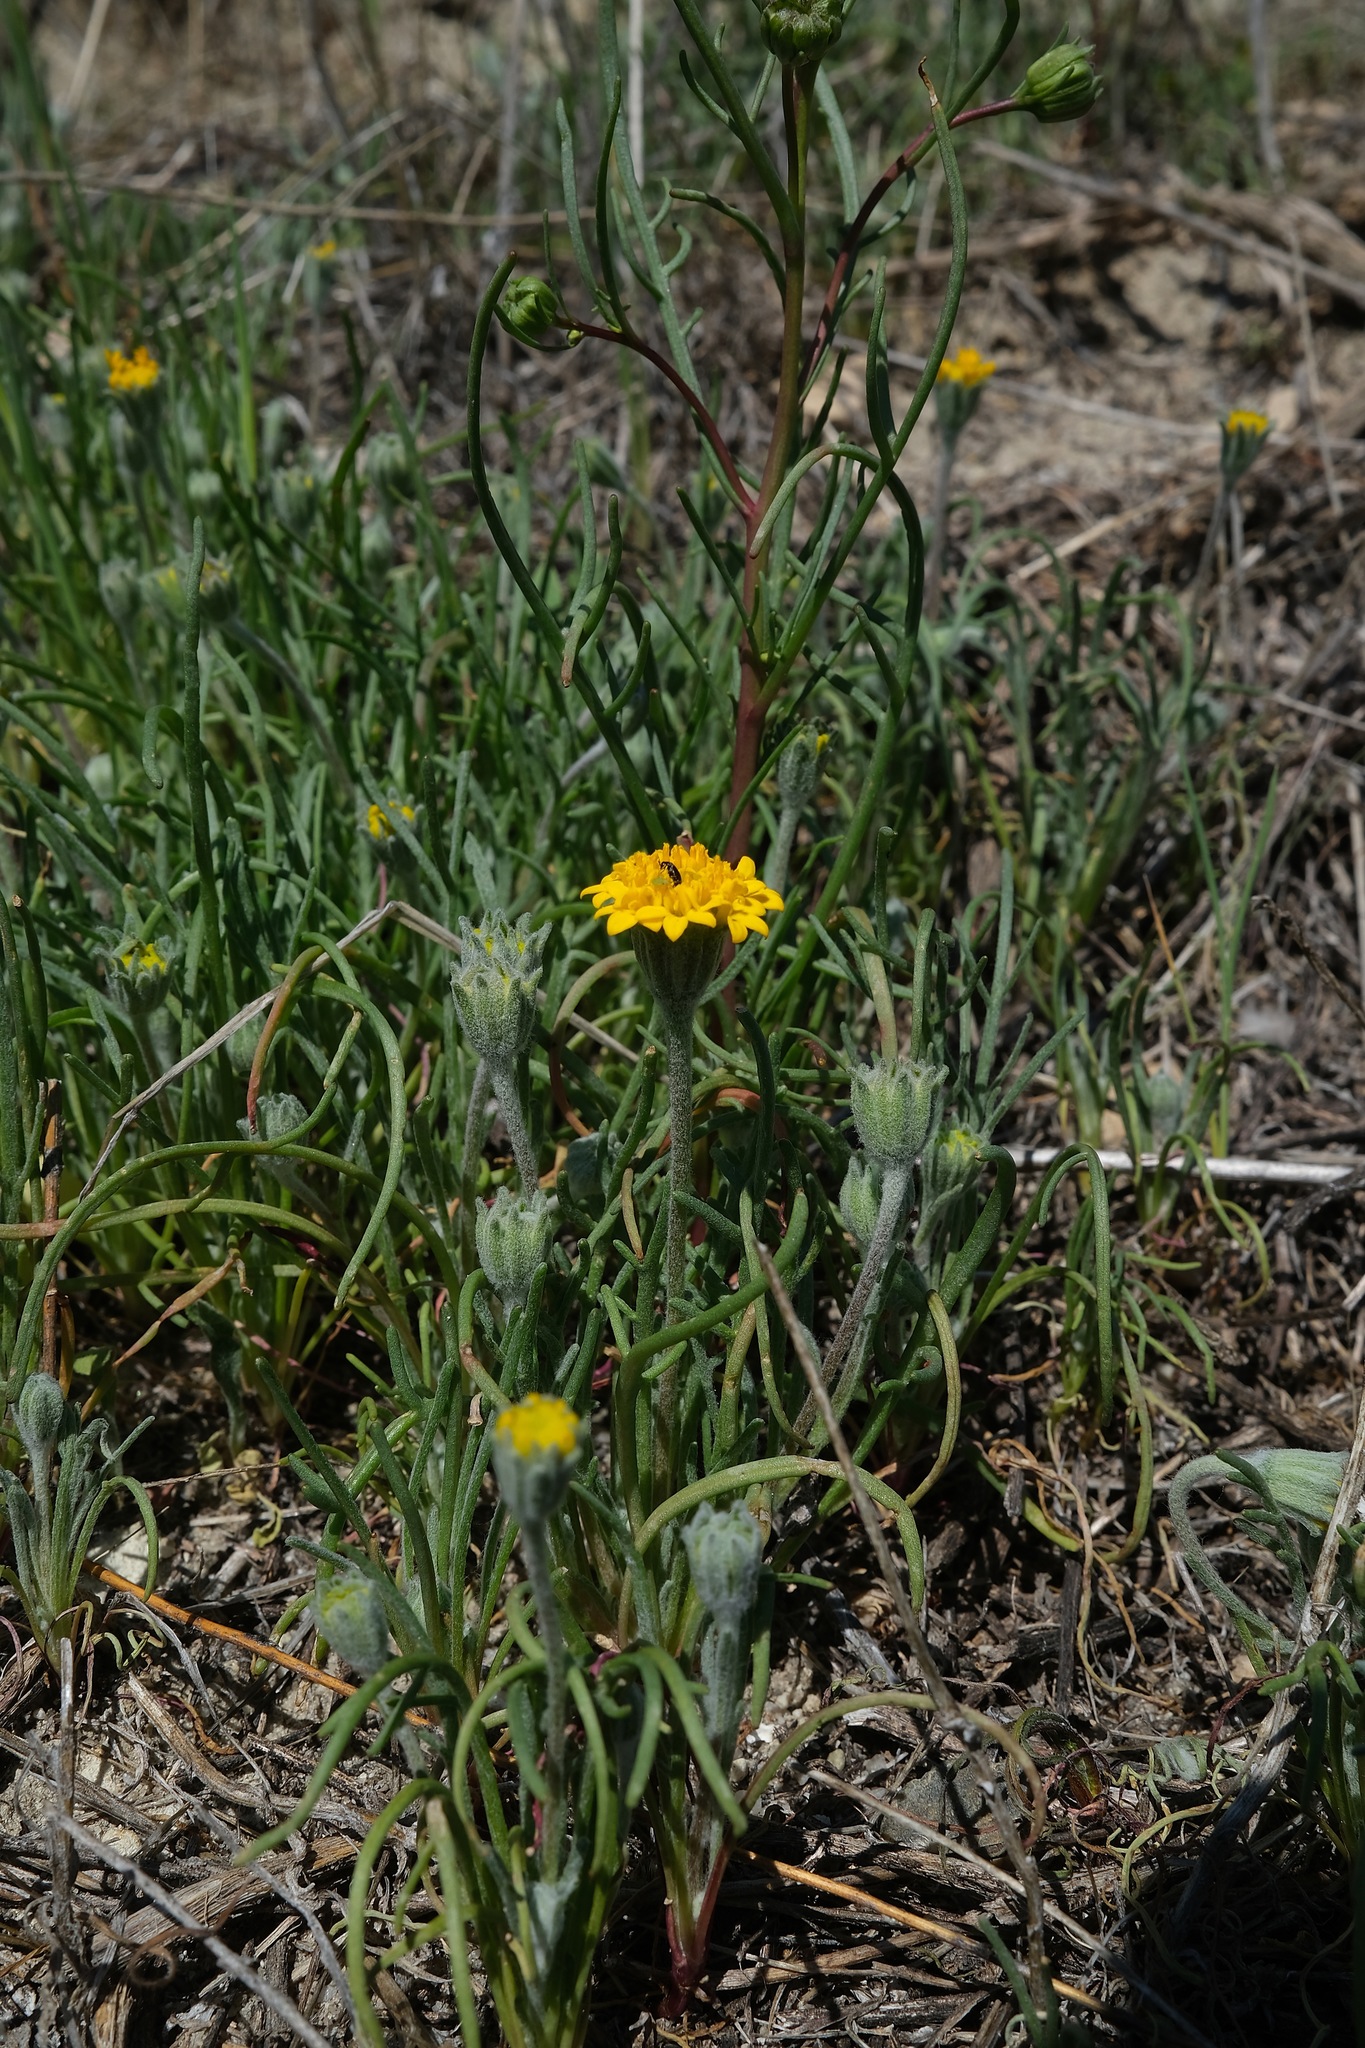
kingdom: Plantae
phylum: Tracheophyta
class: Magnoliopsida
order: Asterales
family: Asteraceae
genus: Chaenactis
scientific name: Chaenactis glabriuscula
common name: Yellow pincushion
